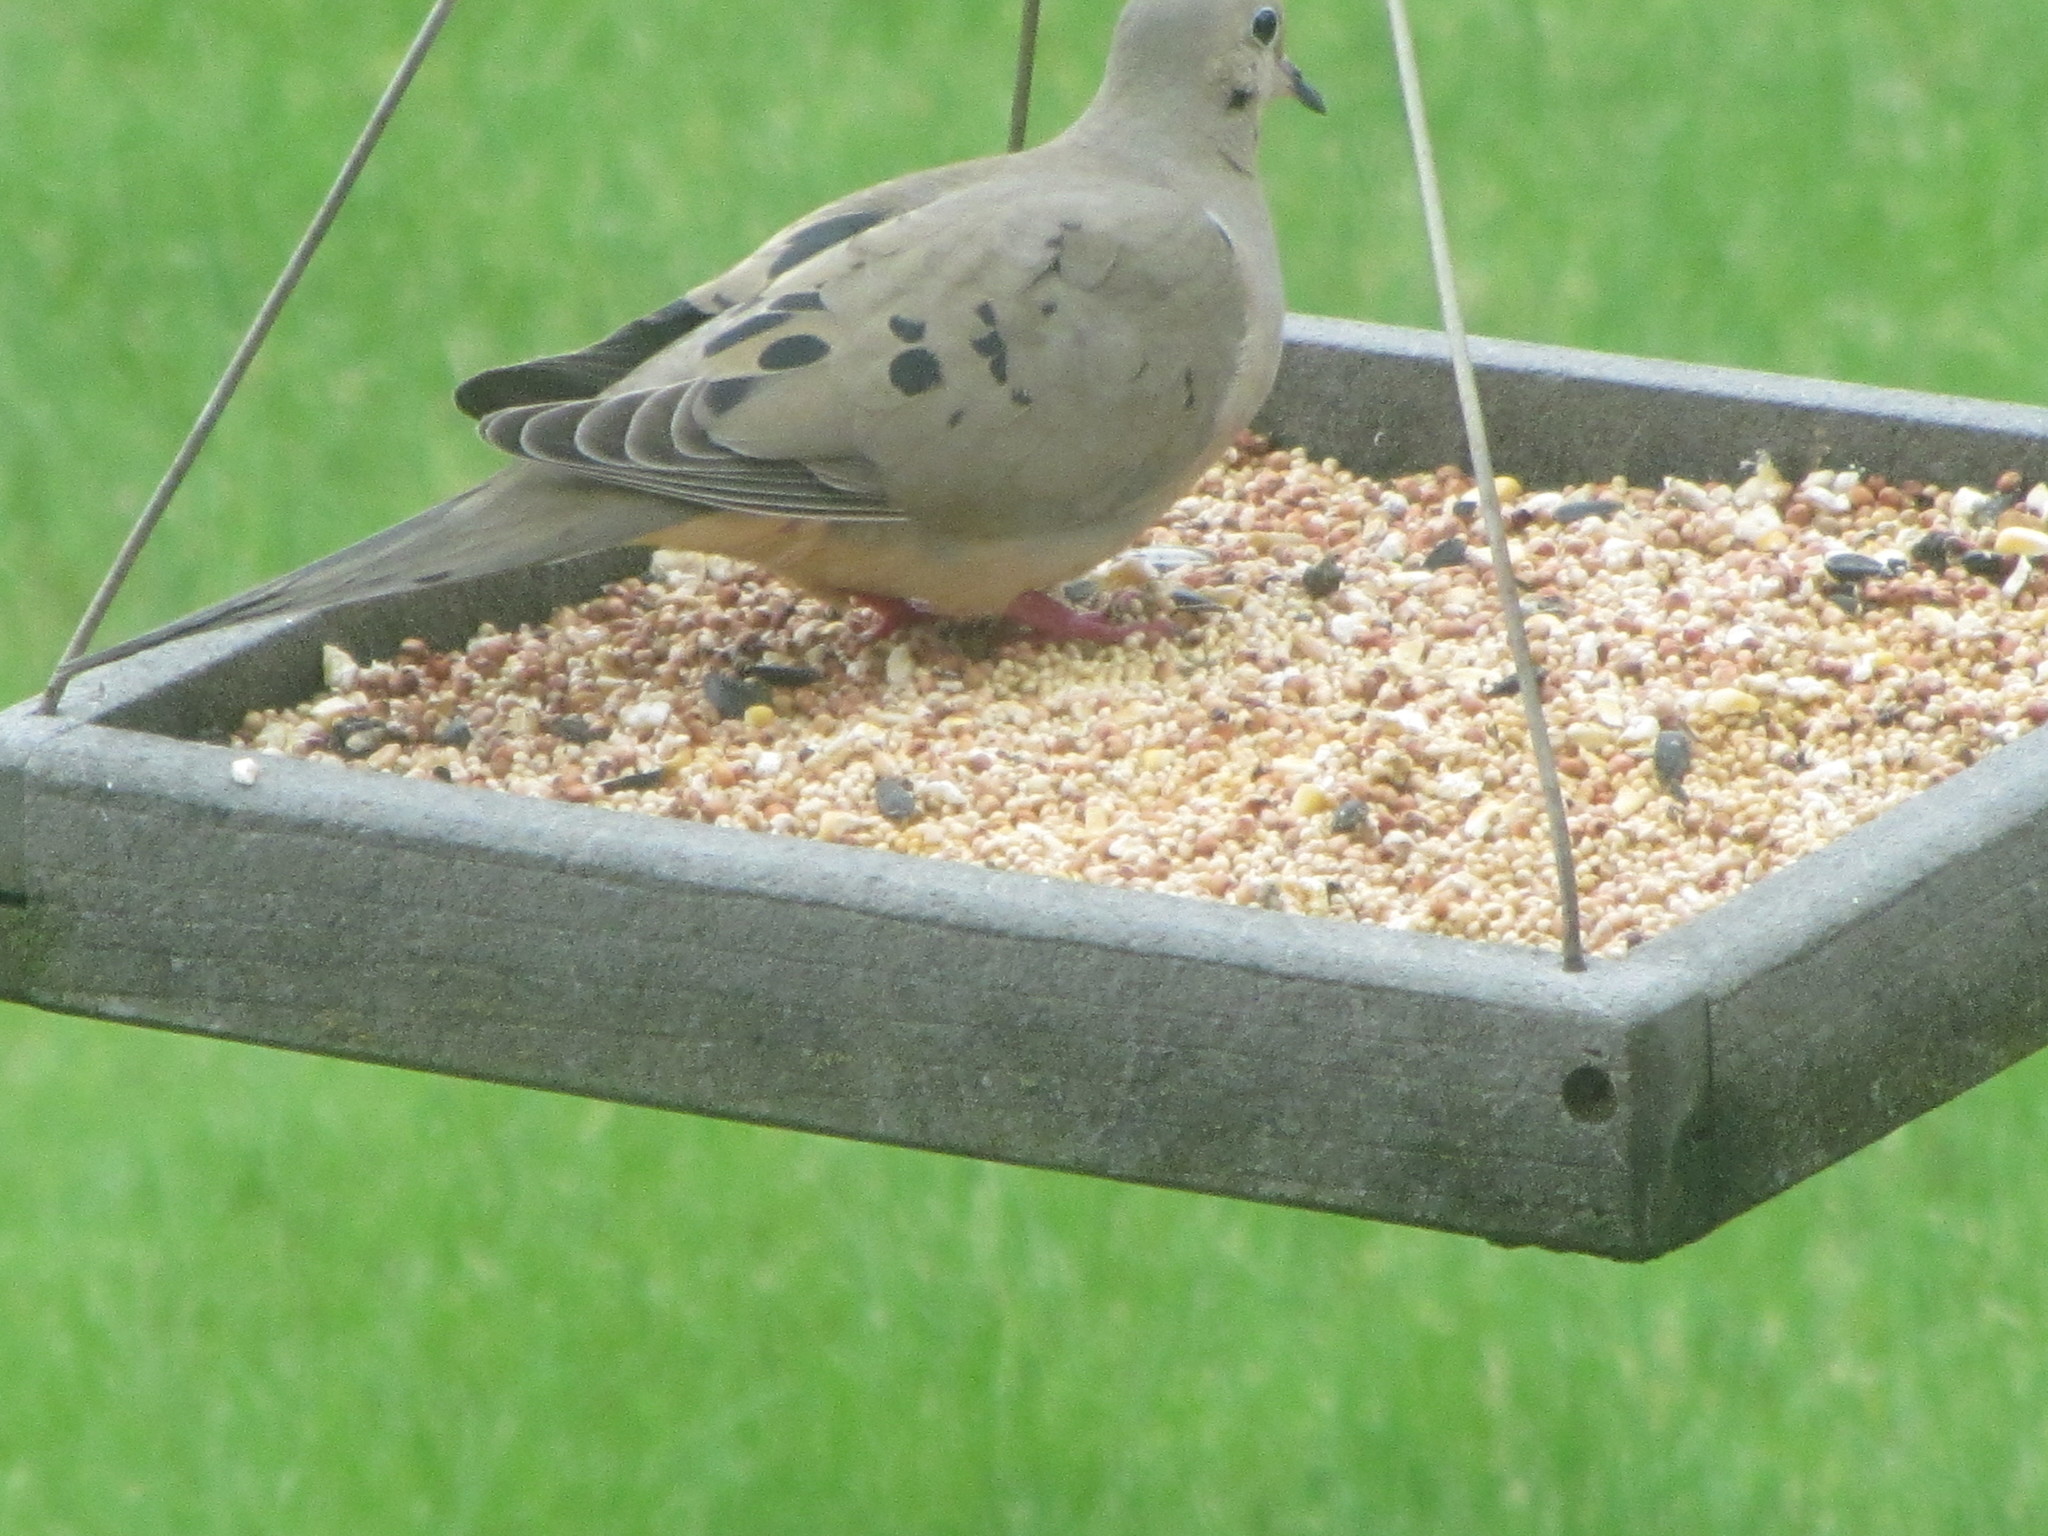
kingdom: Animalia
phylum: Chordata
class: Aves
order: Columbiformes
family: Columbidae
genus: Zenaida
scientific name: Zenaida macroura
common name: Mourning dove
